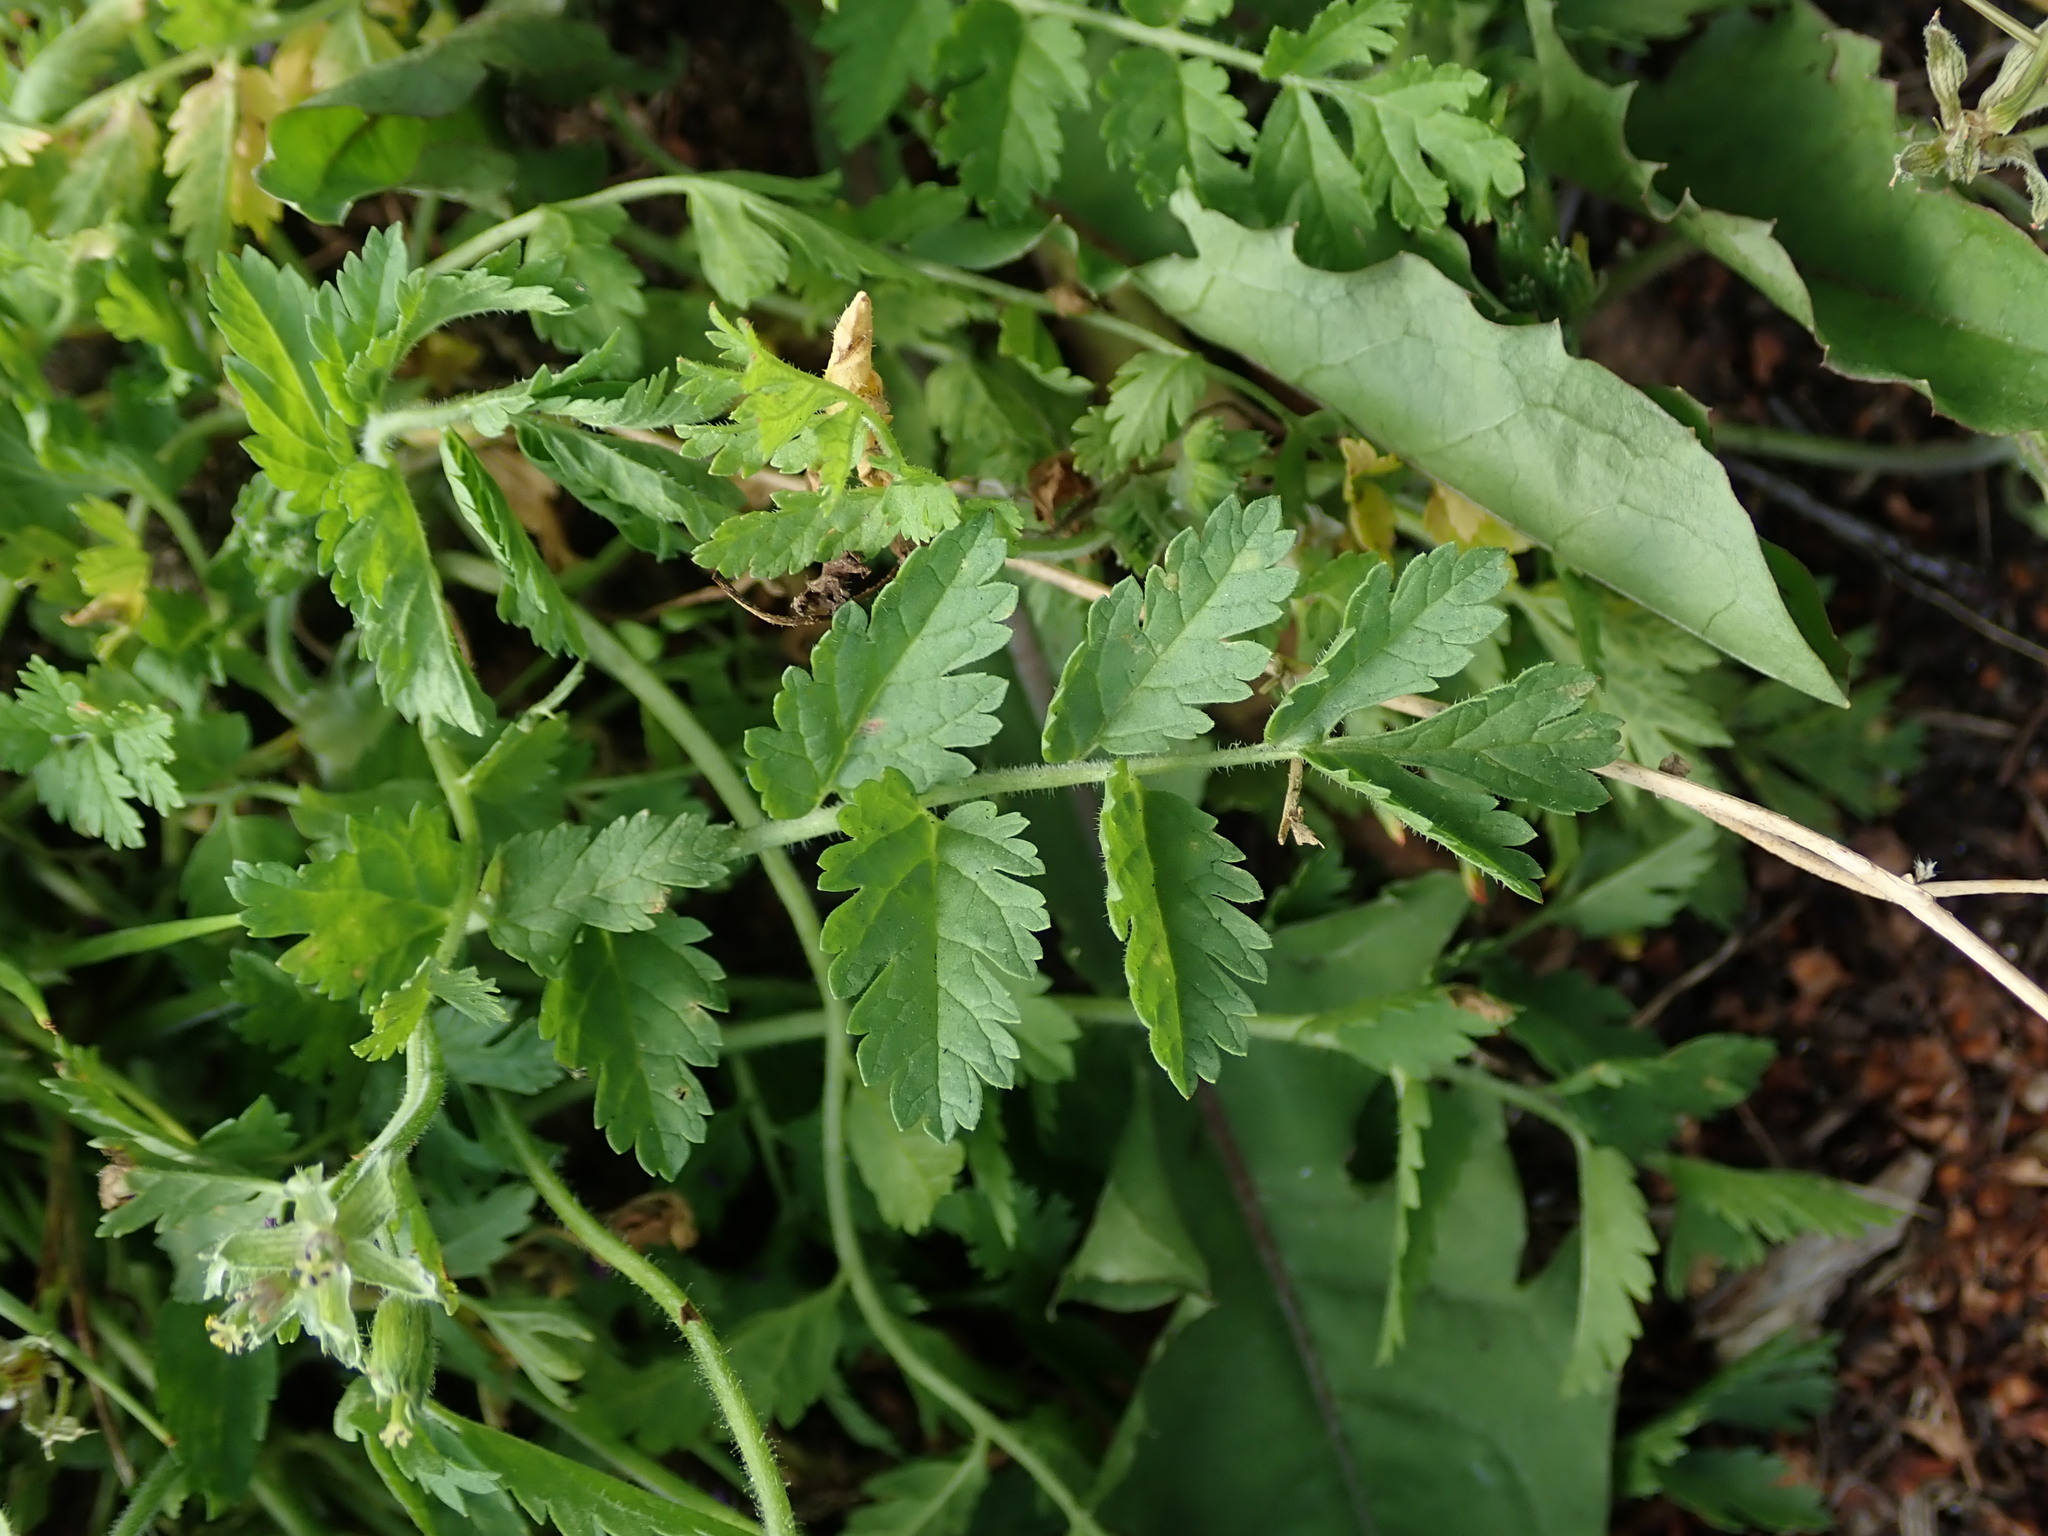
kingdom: Plantae
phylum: Tracheophyta
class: Magnoliopsida
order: Geraniales
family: Geraniaceae
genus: Erodium
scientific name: Erodium moschatum
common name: Musk stork's-bill
